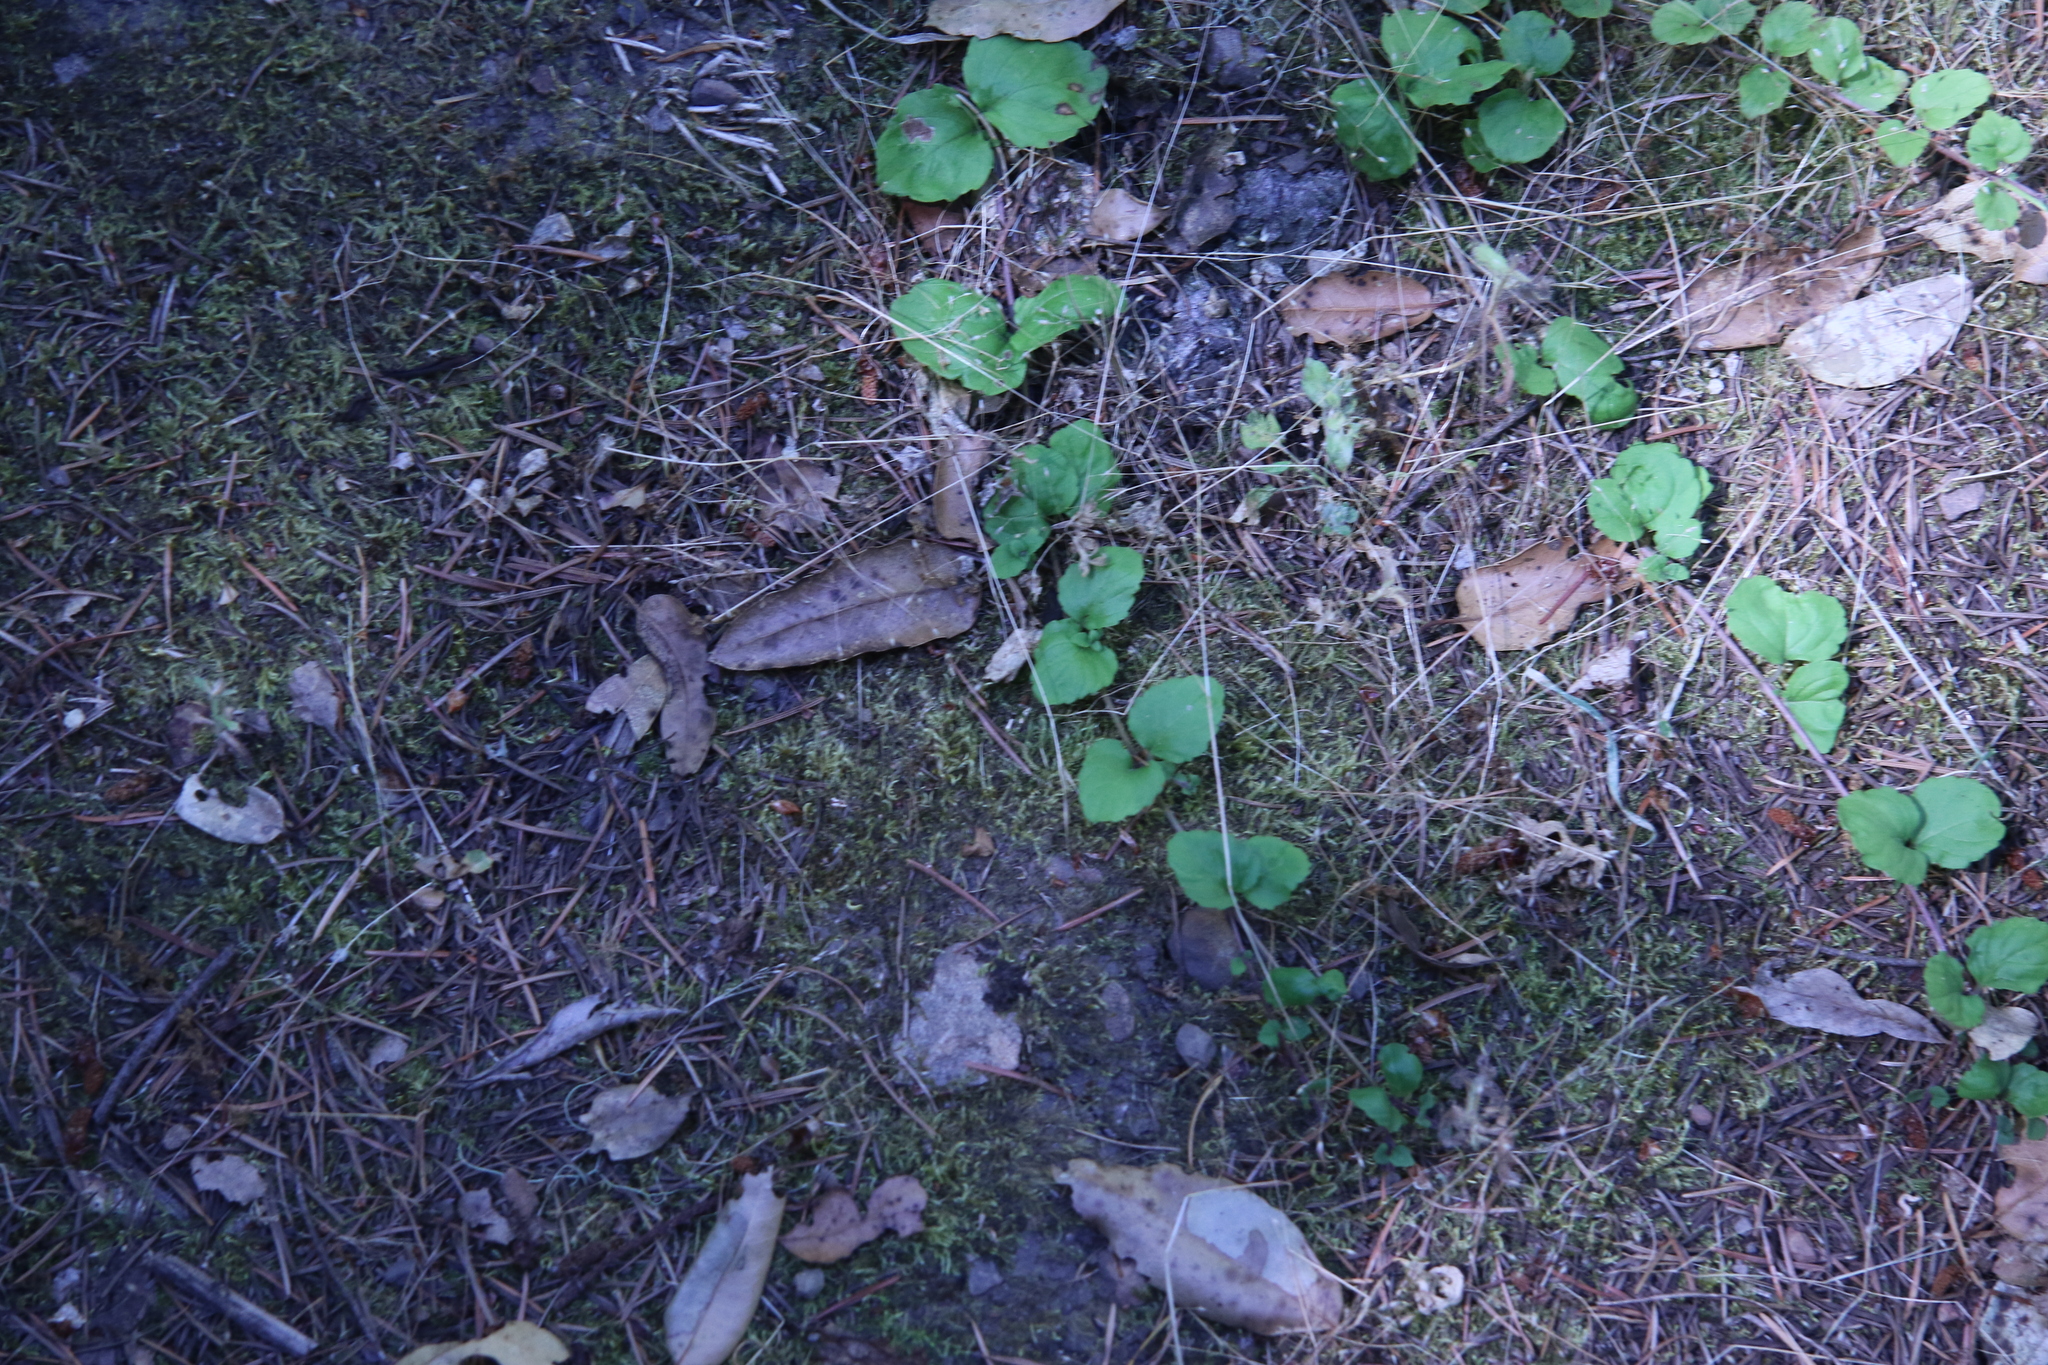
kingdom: Plantae
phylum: Tracheophyta
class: Magnoliopsida
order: Lamiales
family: Lamiaceae
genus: Micromeria
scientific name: Micromeria douglasii
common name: Yerba buena
